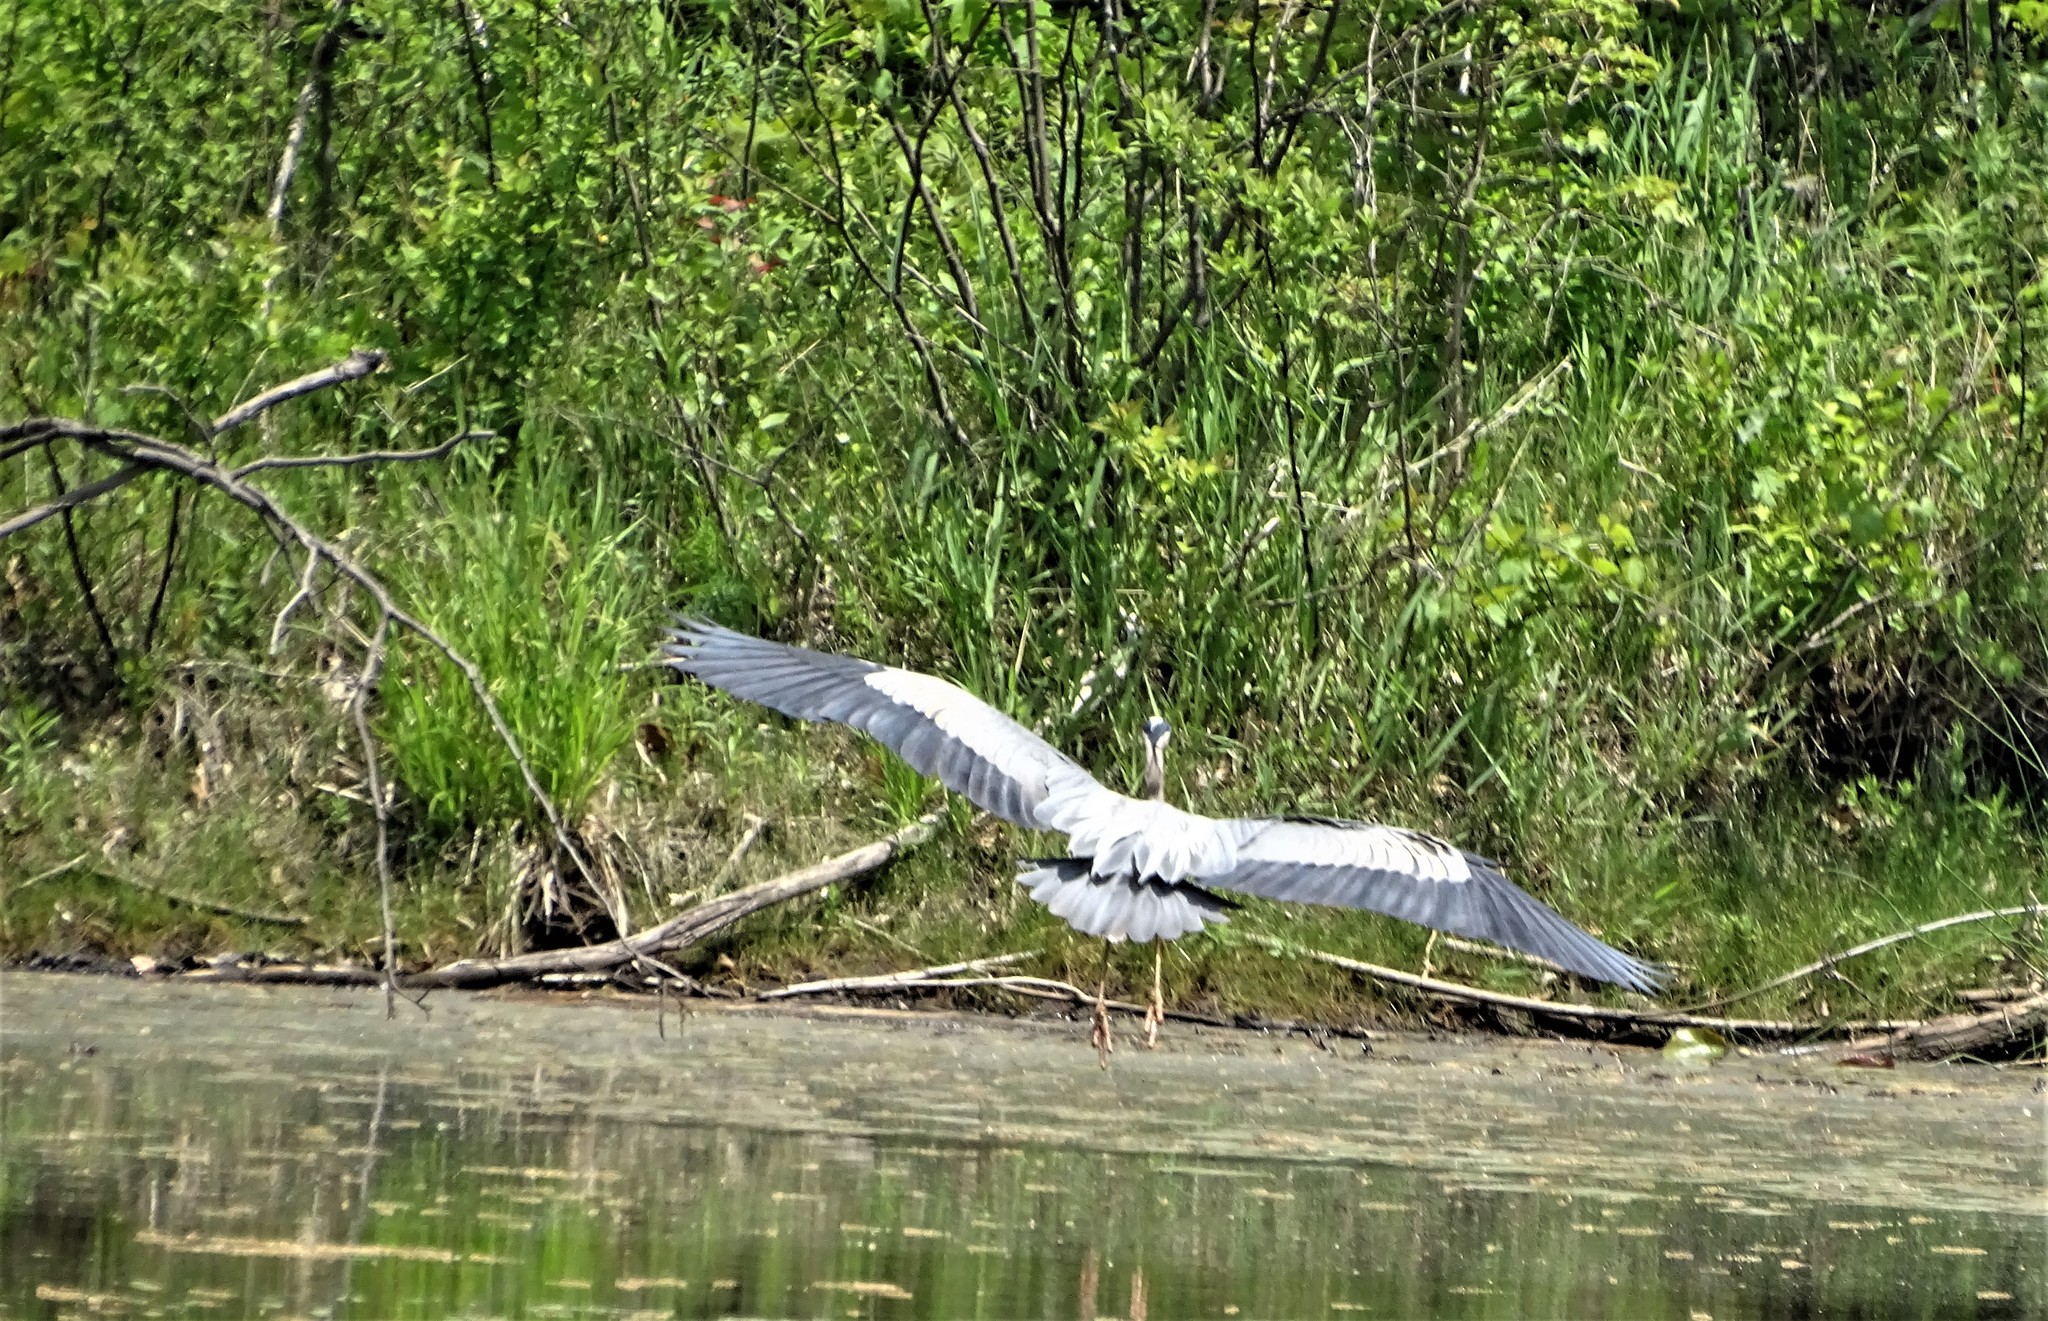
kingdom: Animalia
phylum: Chordata
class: Aves
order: Pelecaniformes
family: Ardeidae
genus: Ardea
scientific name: Ardea herodias
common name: Great blue heron
